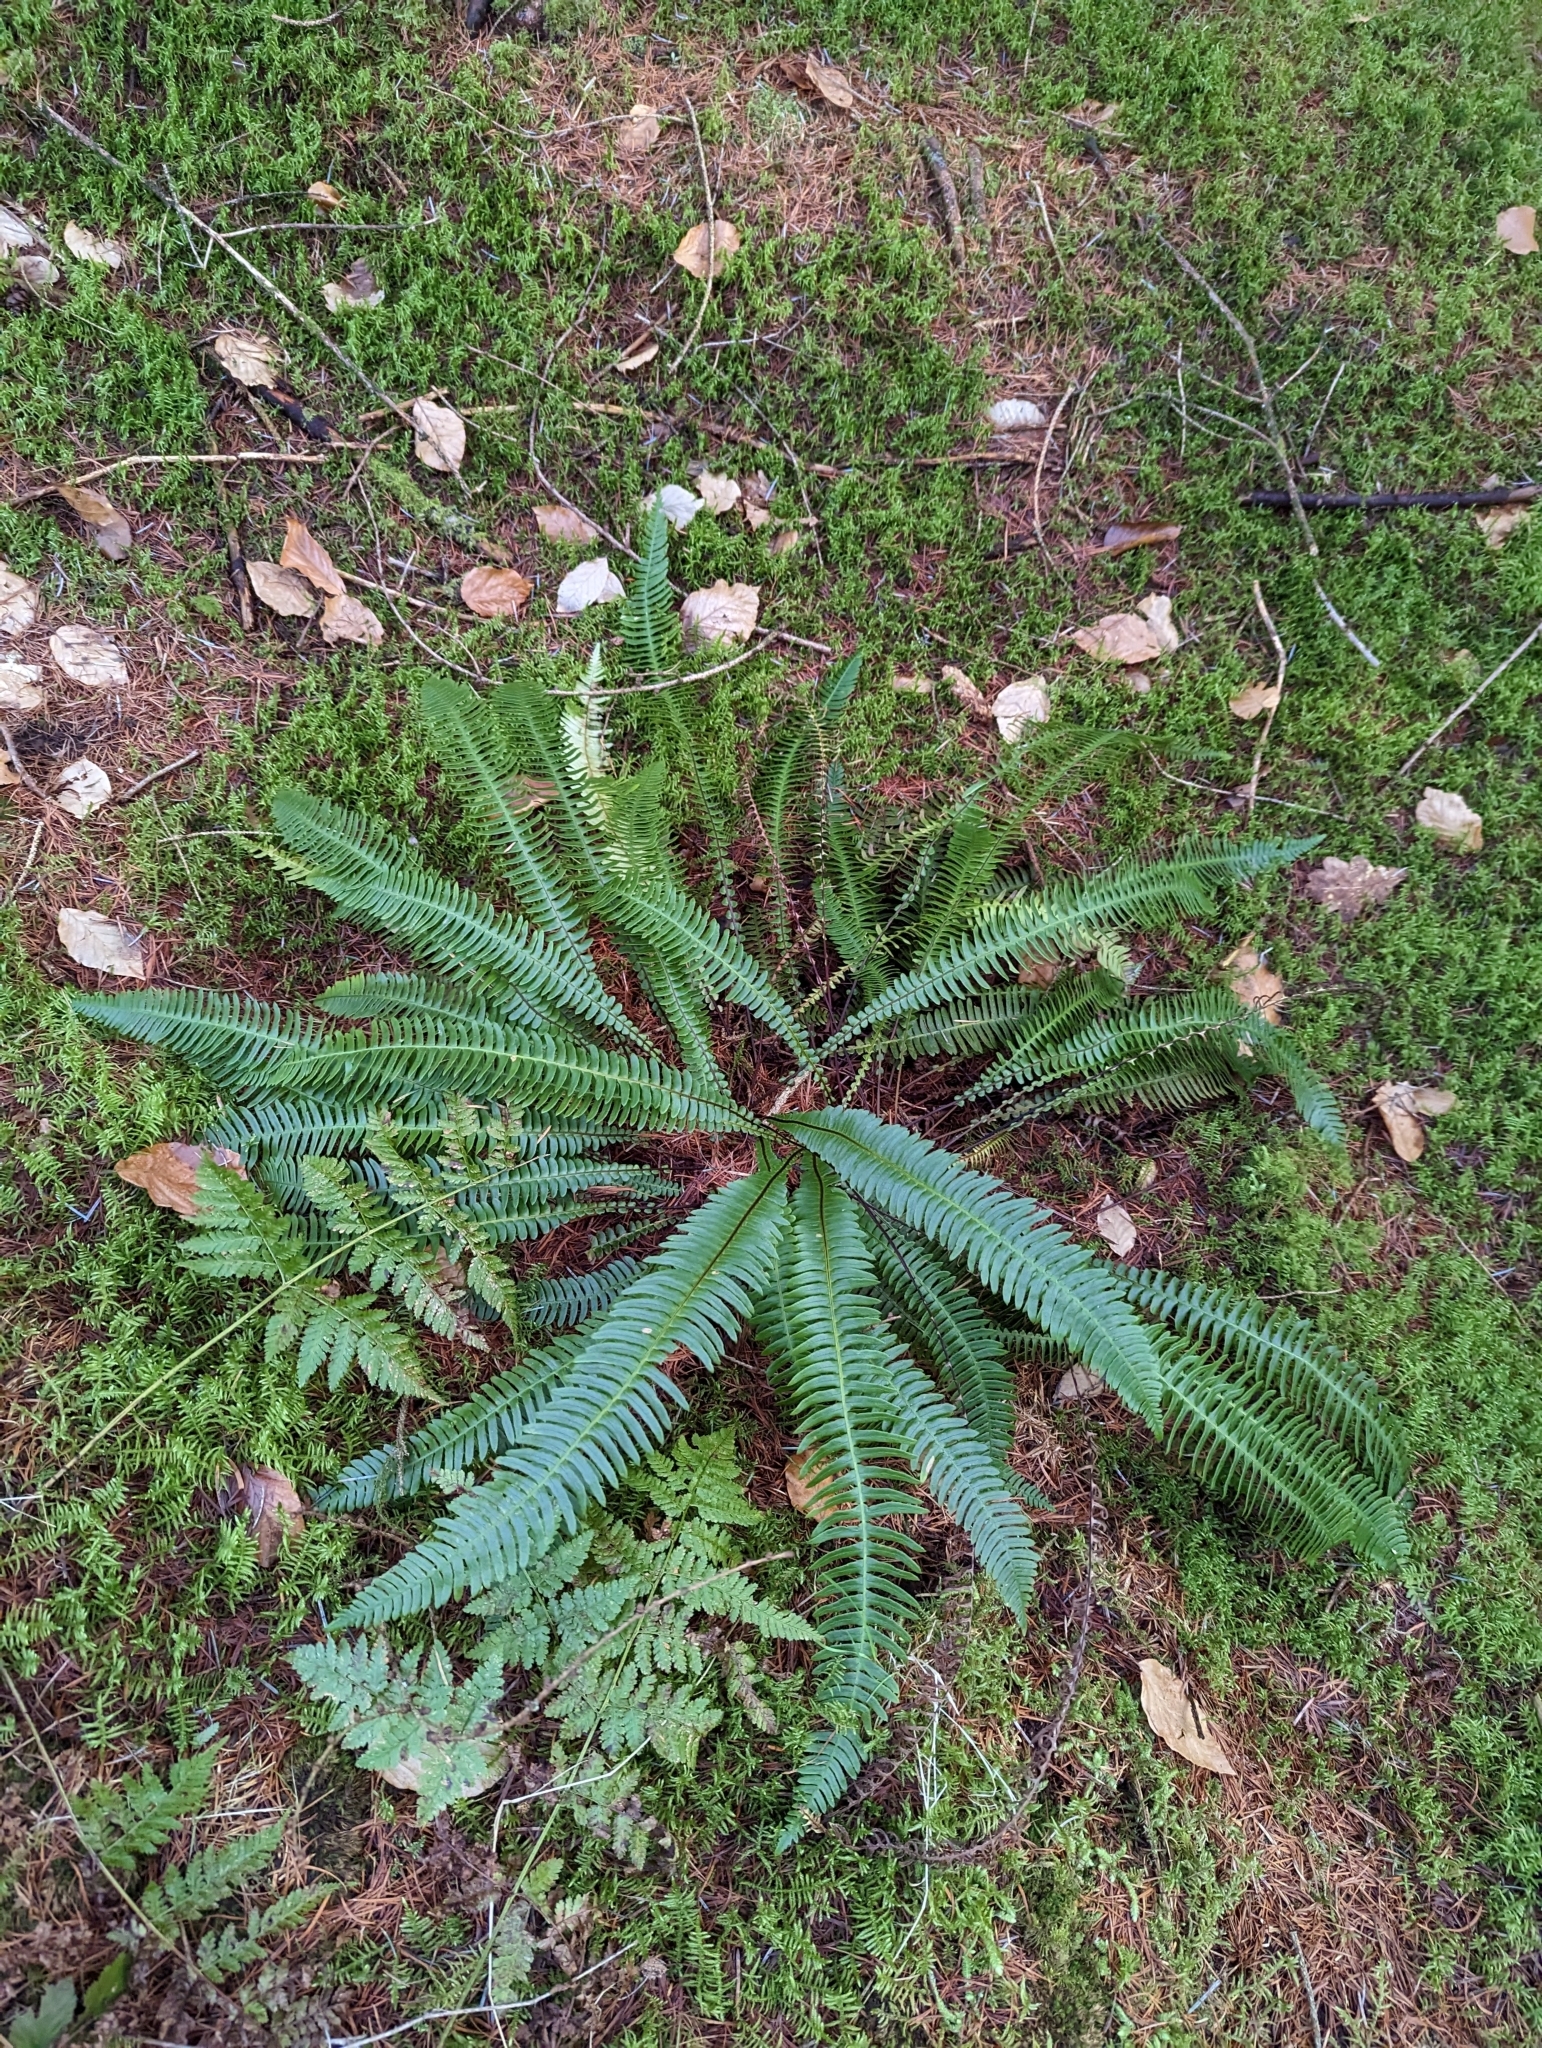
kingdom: Plantae
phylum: Tracheophyta
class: Polypodiopsida
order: Polypodiales
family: Blechnaceae
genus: Struthiopteris
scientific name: Struthiopteris spicant
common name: Deer fern
